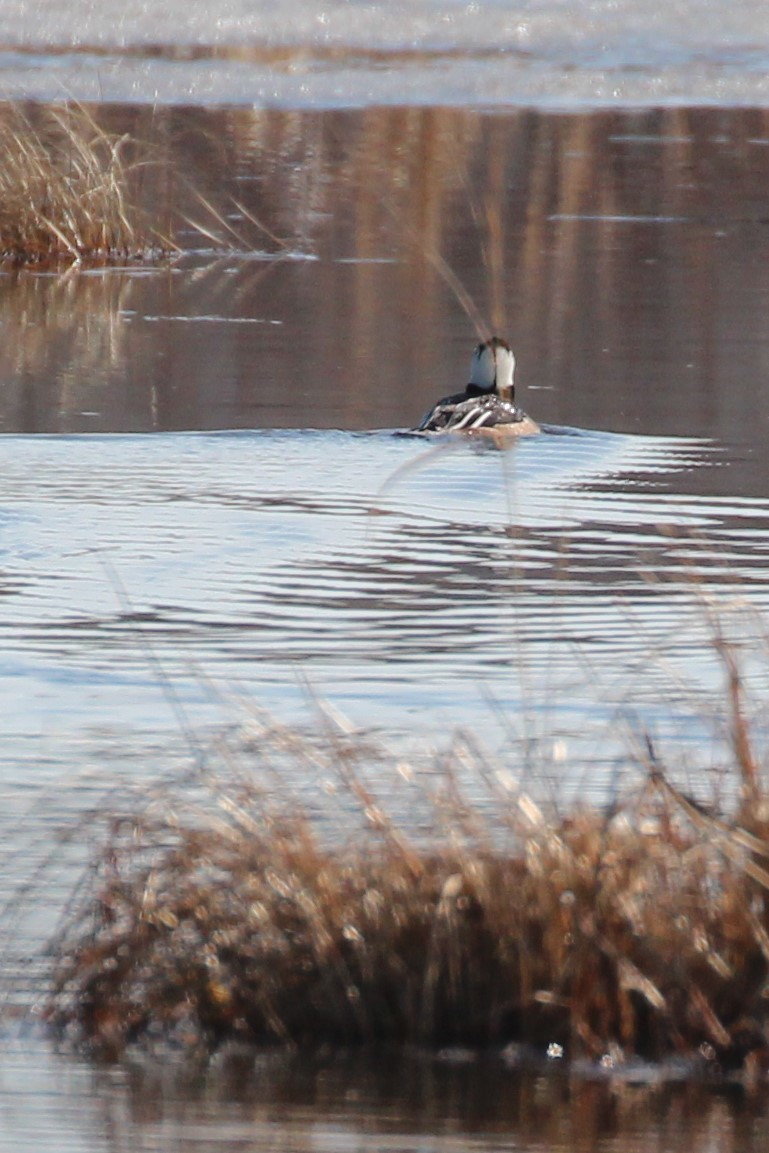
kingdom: Animalia
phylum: Chordata
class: Aves
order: Anseriformes
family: Anatidae
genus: Lophodytes
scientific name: Lophodytes cucullatus
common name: Hooded merganser
